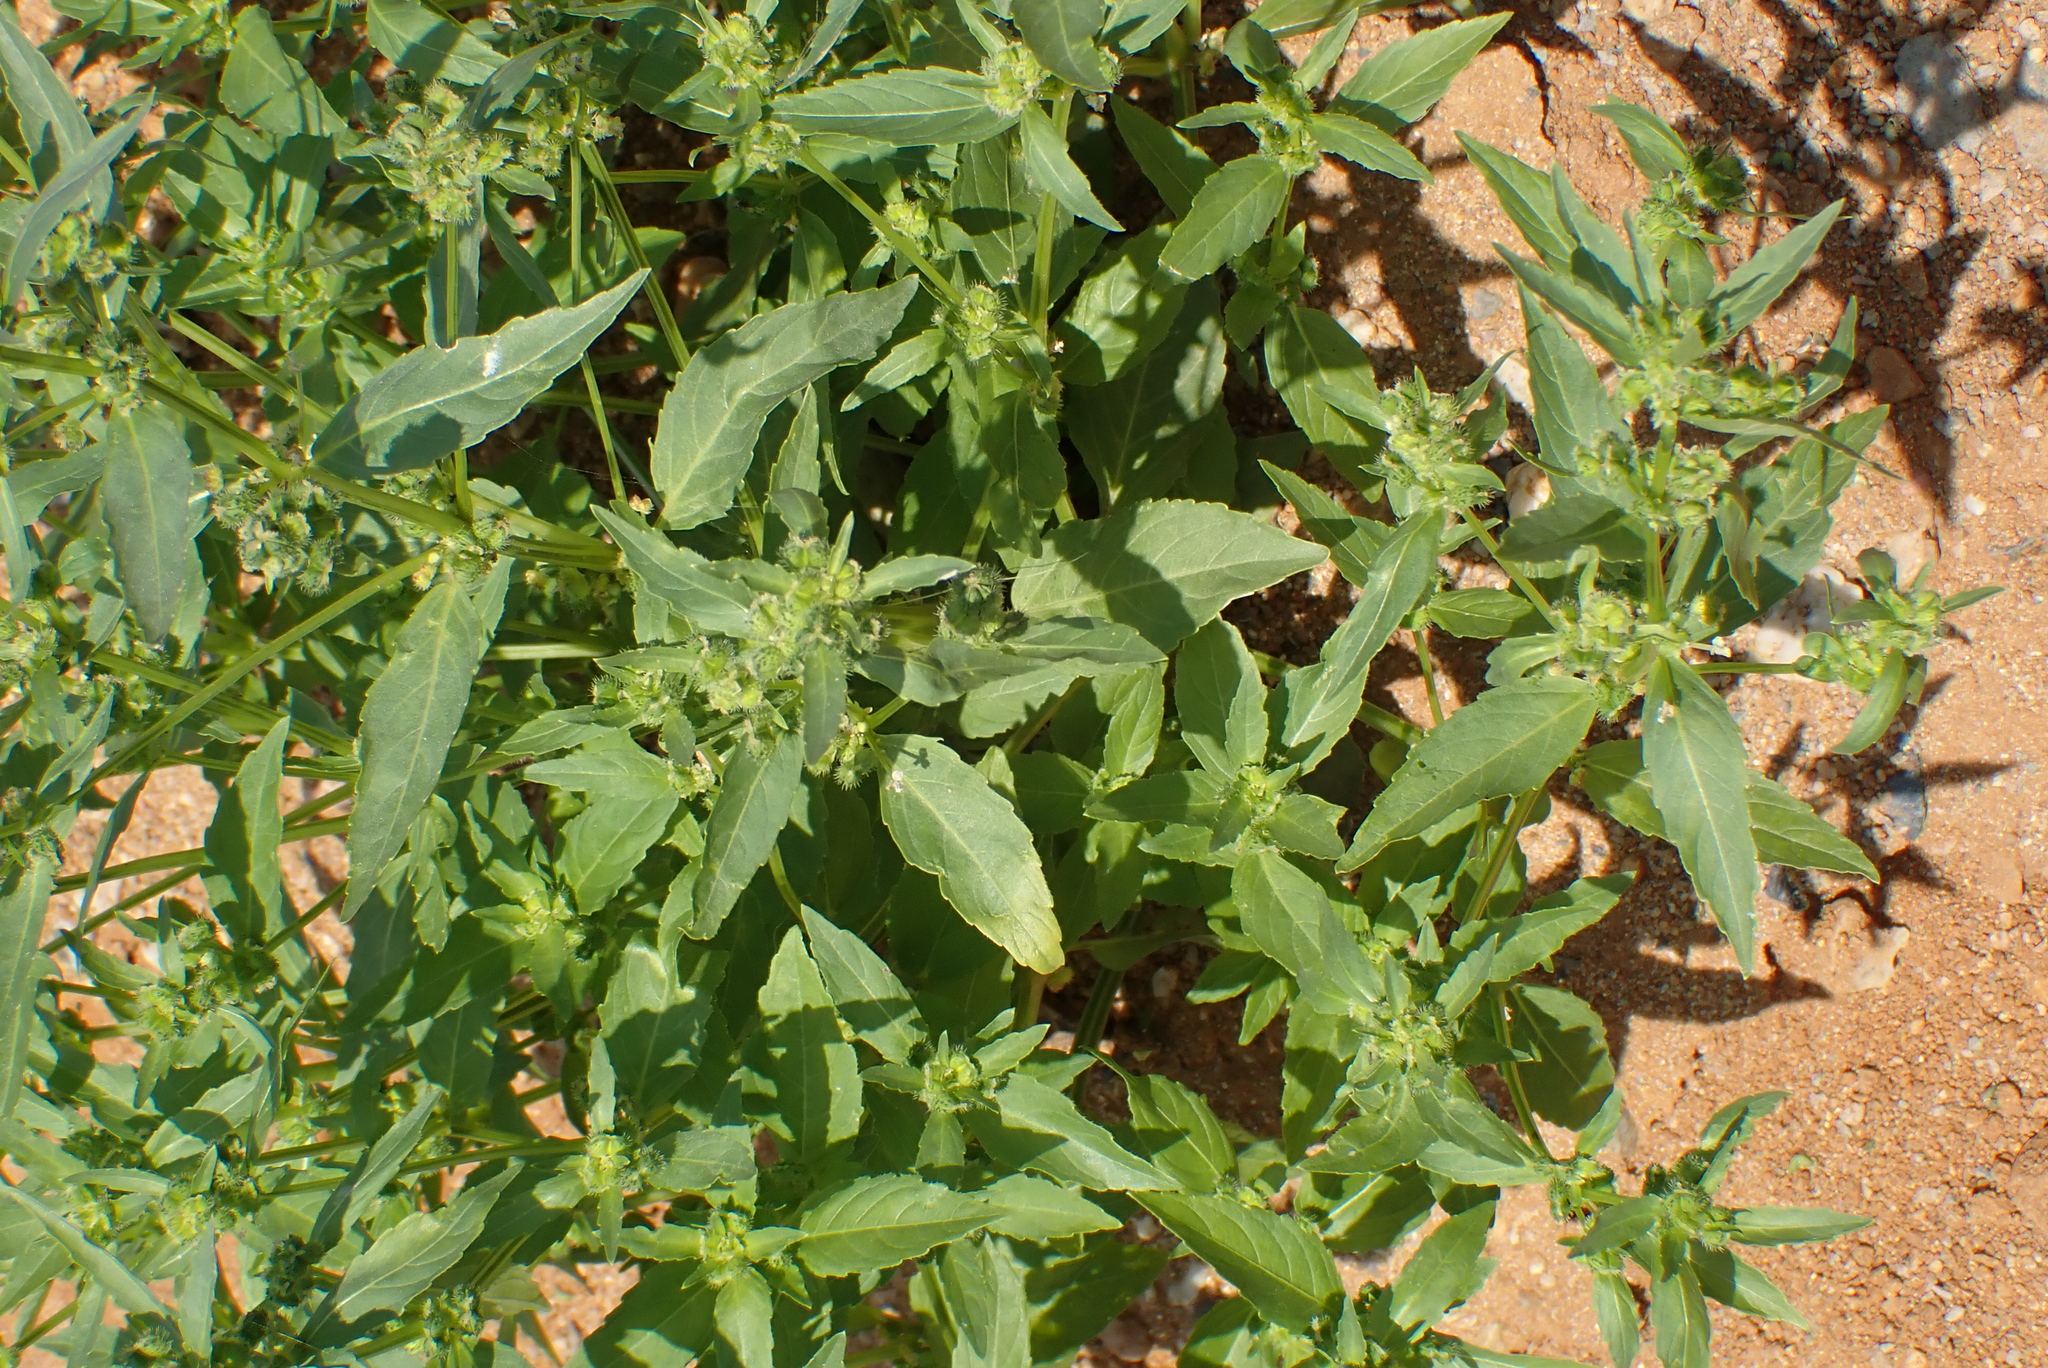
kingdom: Plantae
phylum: Tracheophyta
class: Magnoliopsida
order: Malpighiales
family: Euphorbiaceae
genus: Mercurialis
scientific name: Mercurialis annua
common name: Annual mercury
